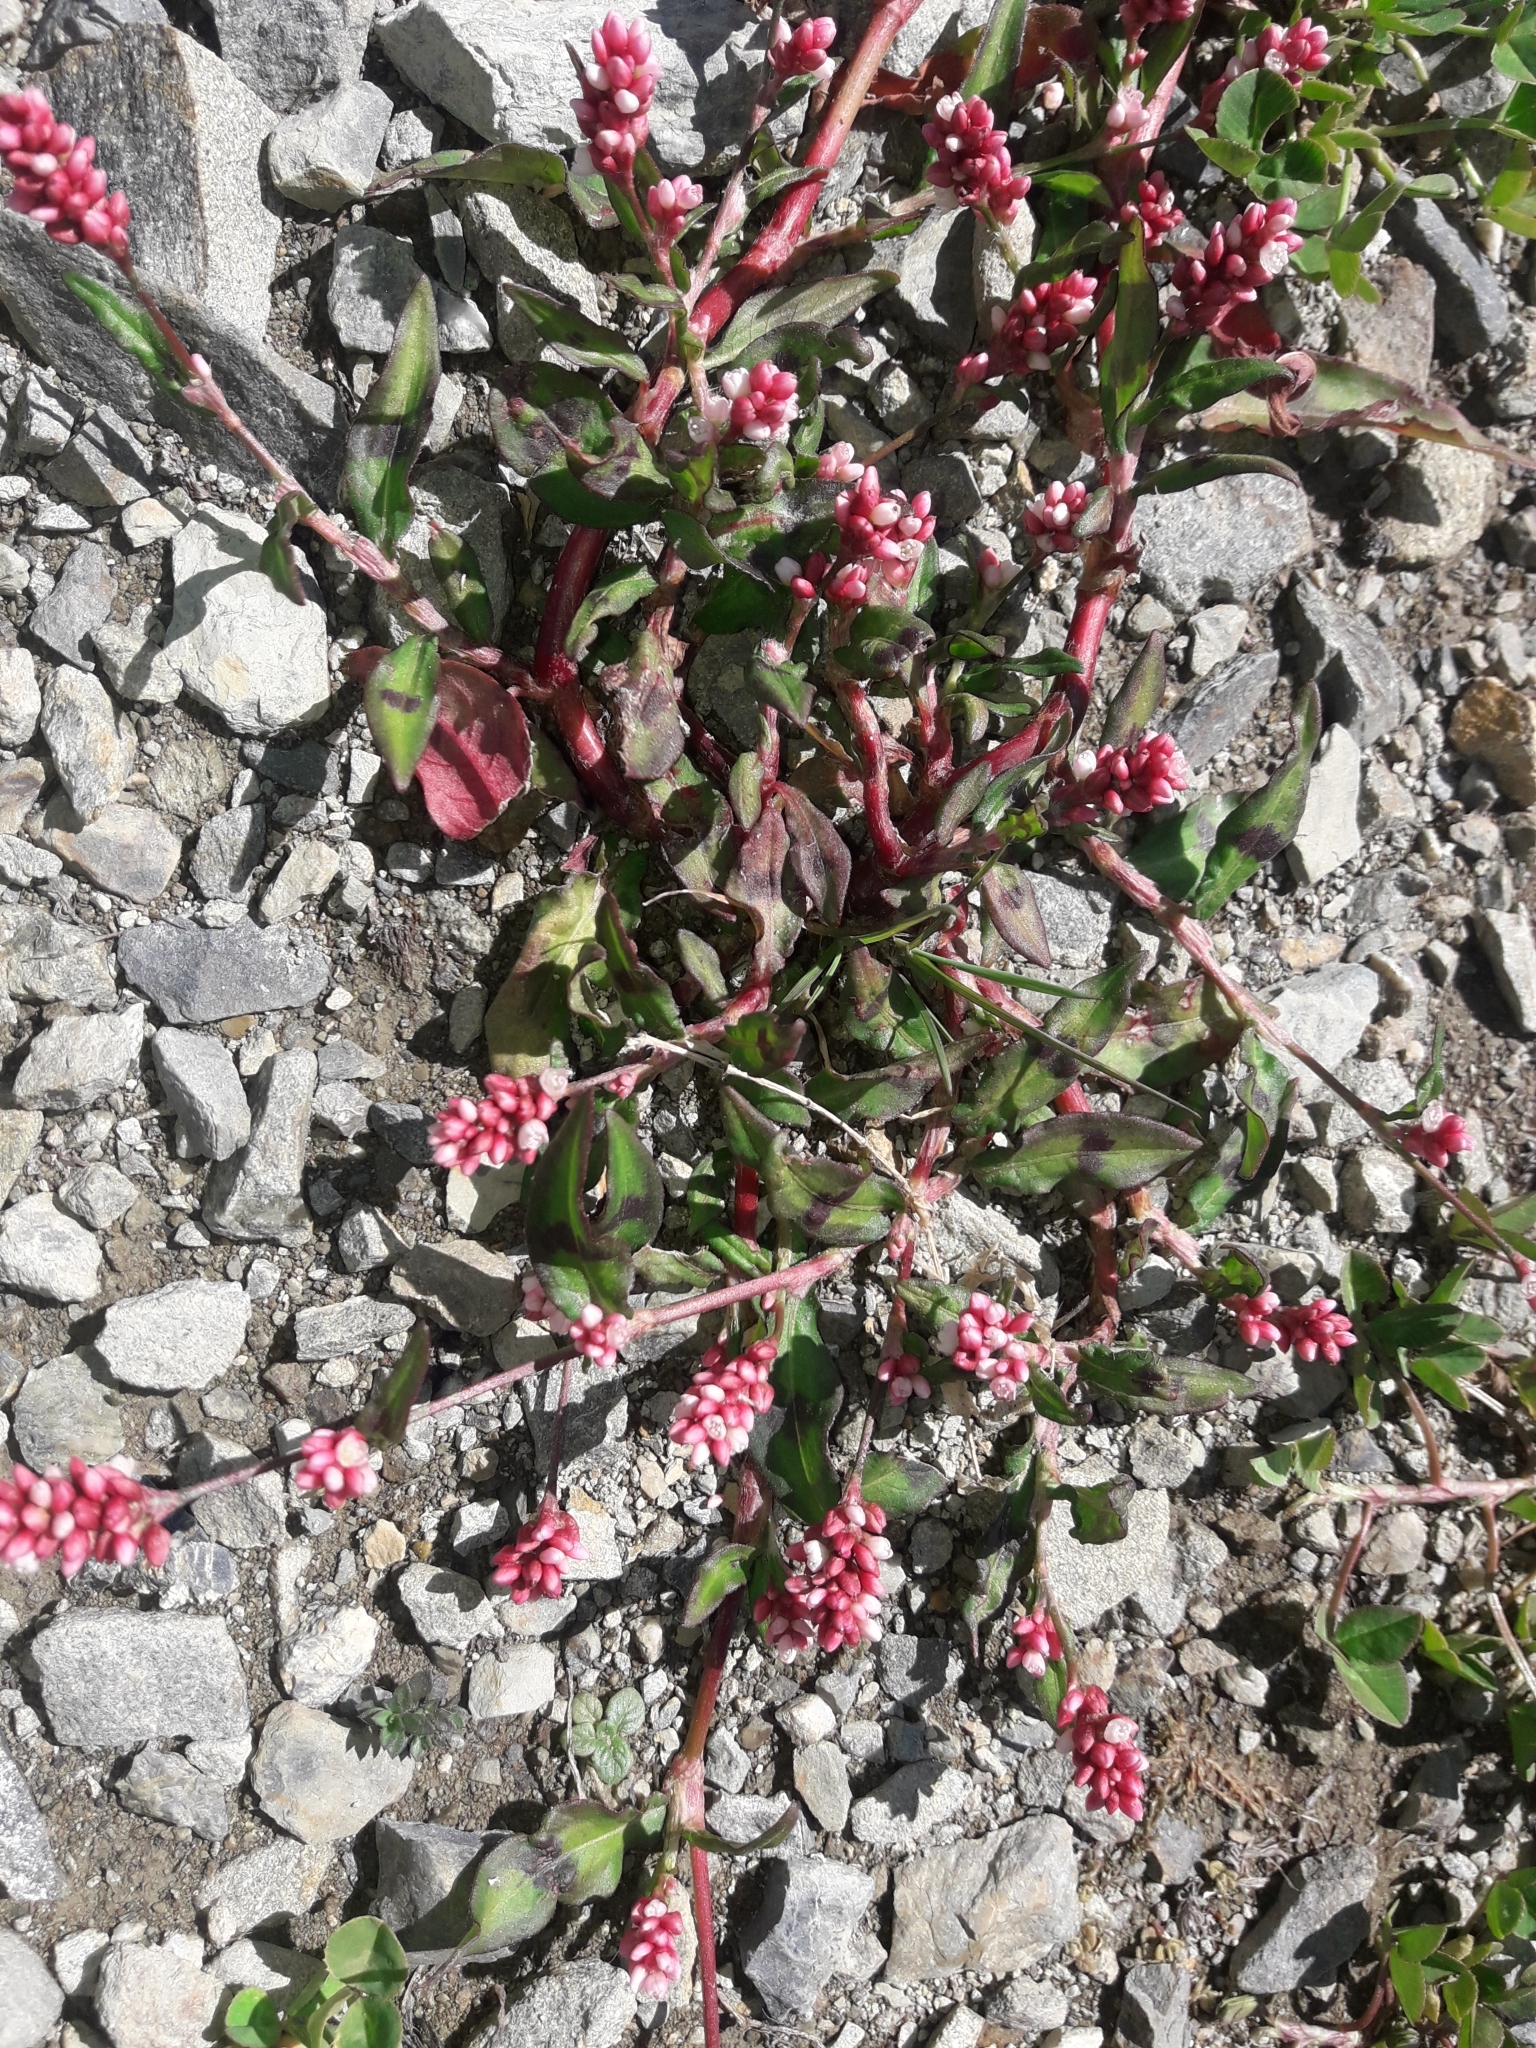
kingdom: Plantae
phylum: Tracheophyta
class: Magnoliopsida
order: Caryophyllales
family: Polygonaceae
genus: Persicaria
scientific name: Persicaria maculosa
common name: Redshank
